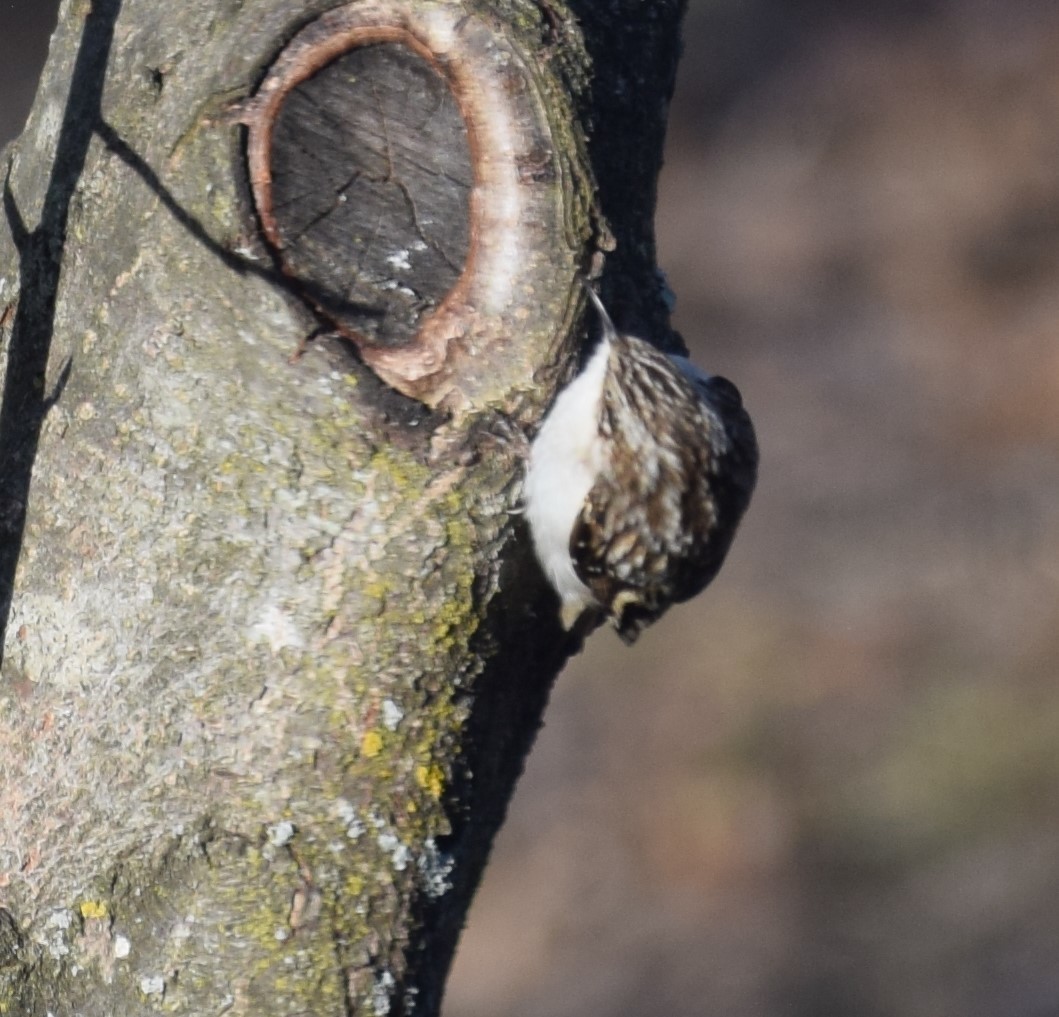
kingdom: Animalia
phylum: Chordata
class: Aves
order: Passeriformes
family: Certhiidae
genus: Certhia
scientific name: Certhia americana
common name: Brown creeper
